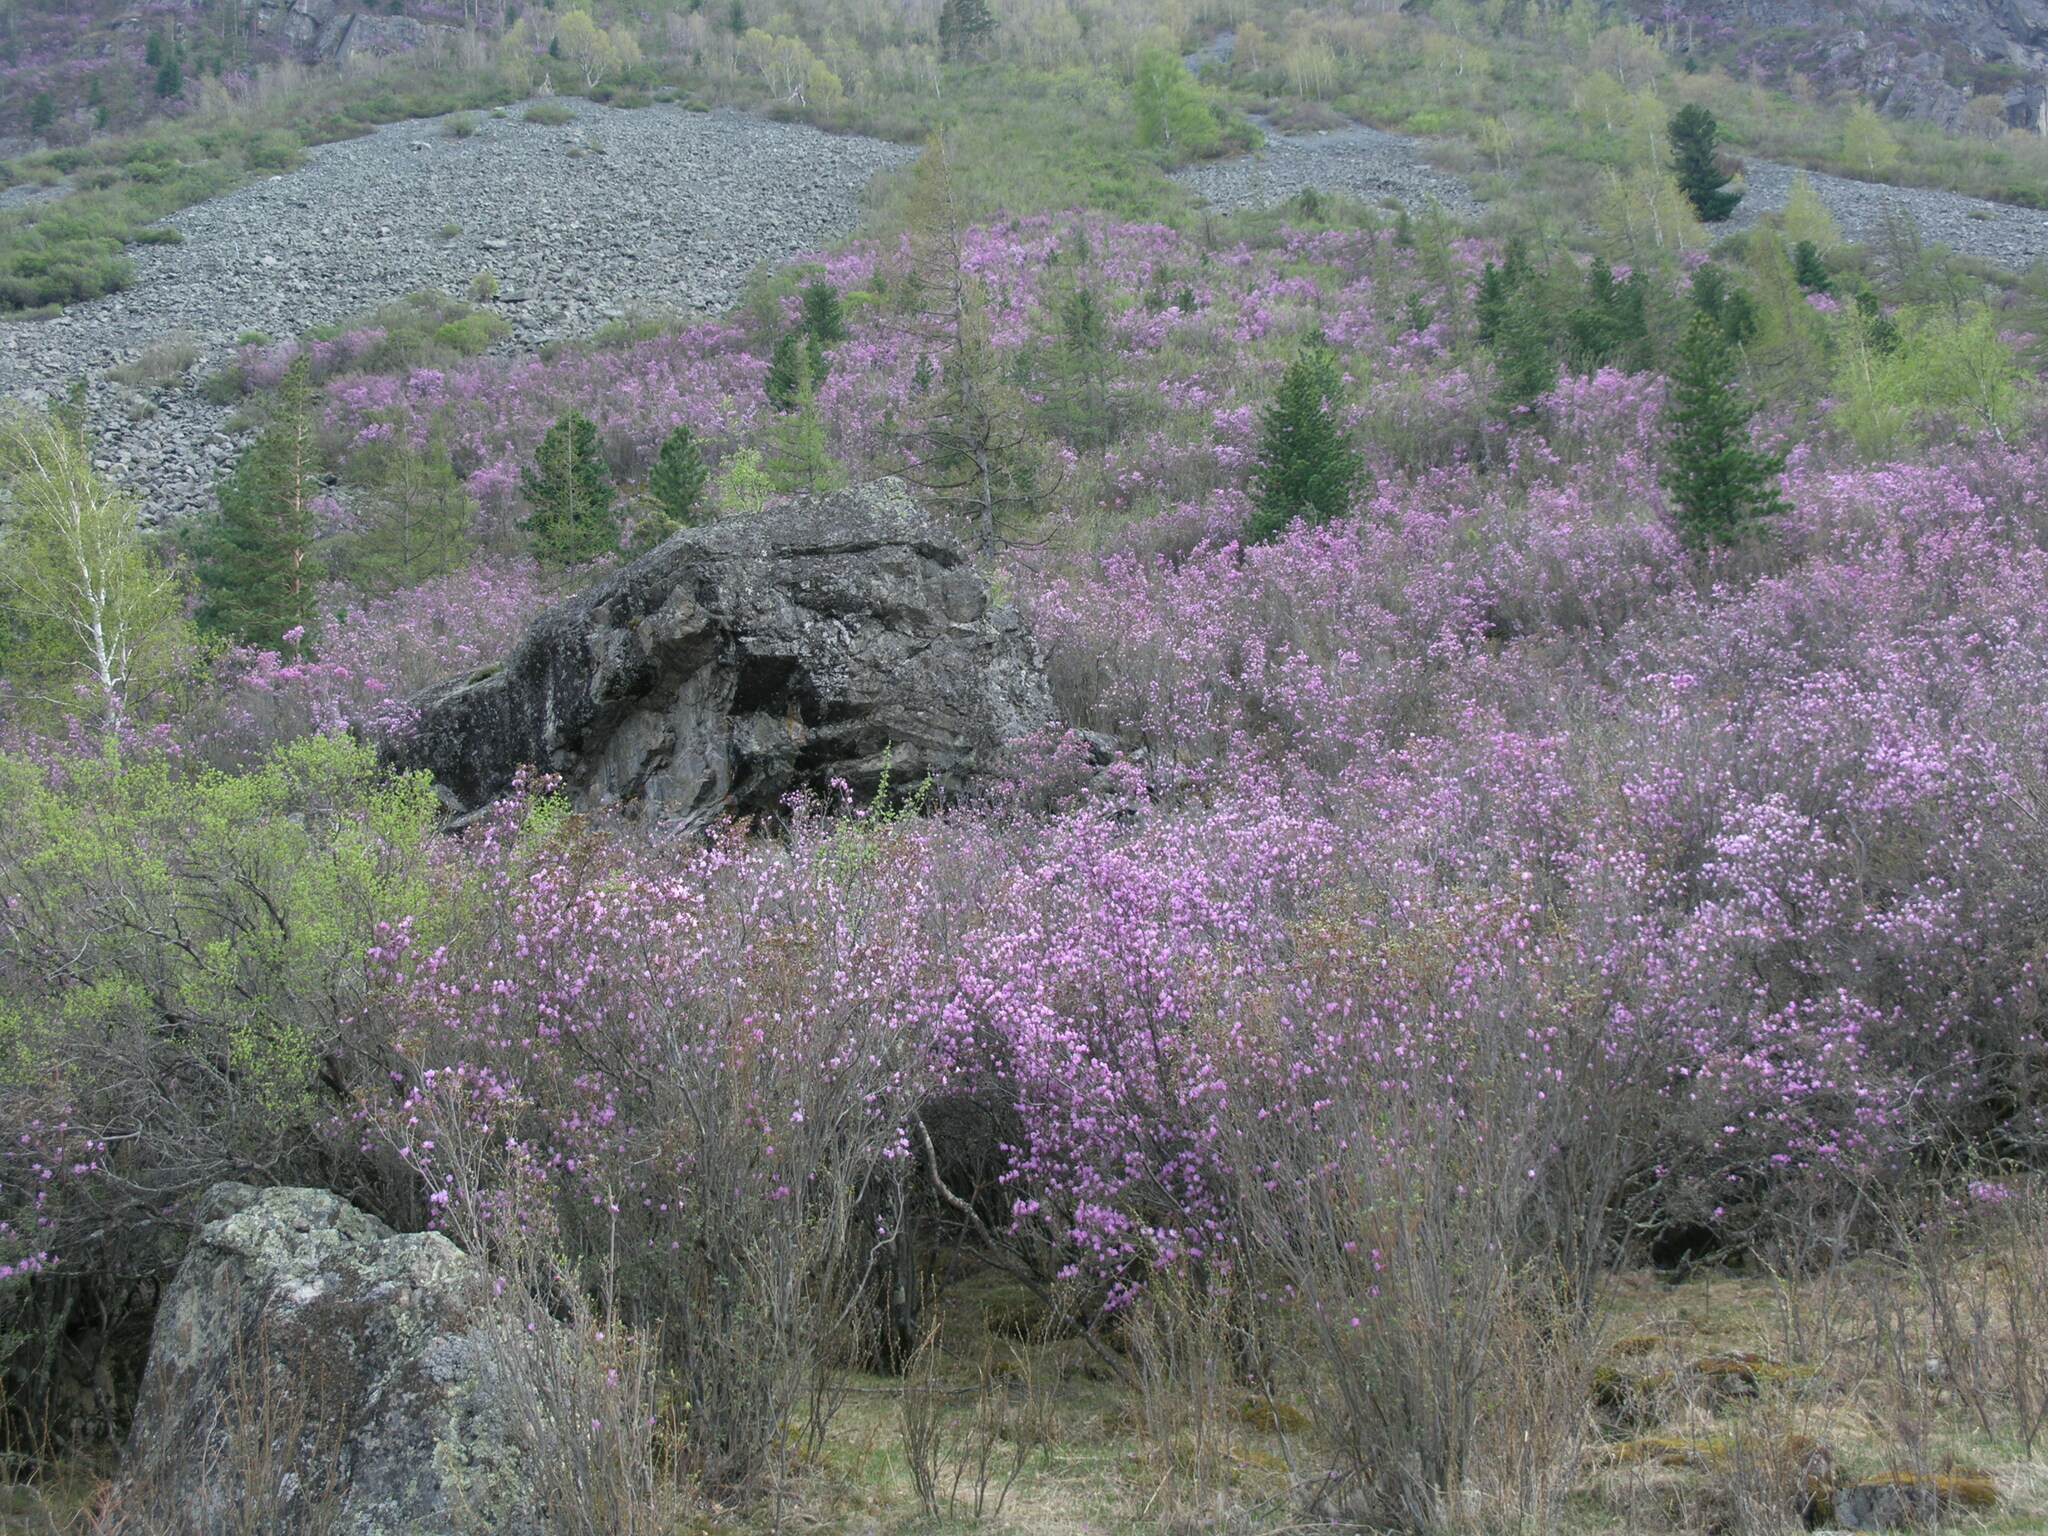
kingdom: Plantae
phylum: Tracheophyta
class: Magnoliopsida
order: Ericales
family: Ericaceae
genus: Rhododendron
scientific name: Rhododendron dauricum
